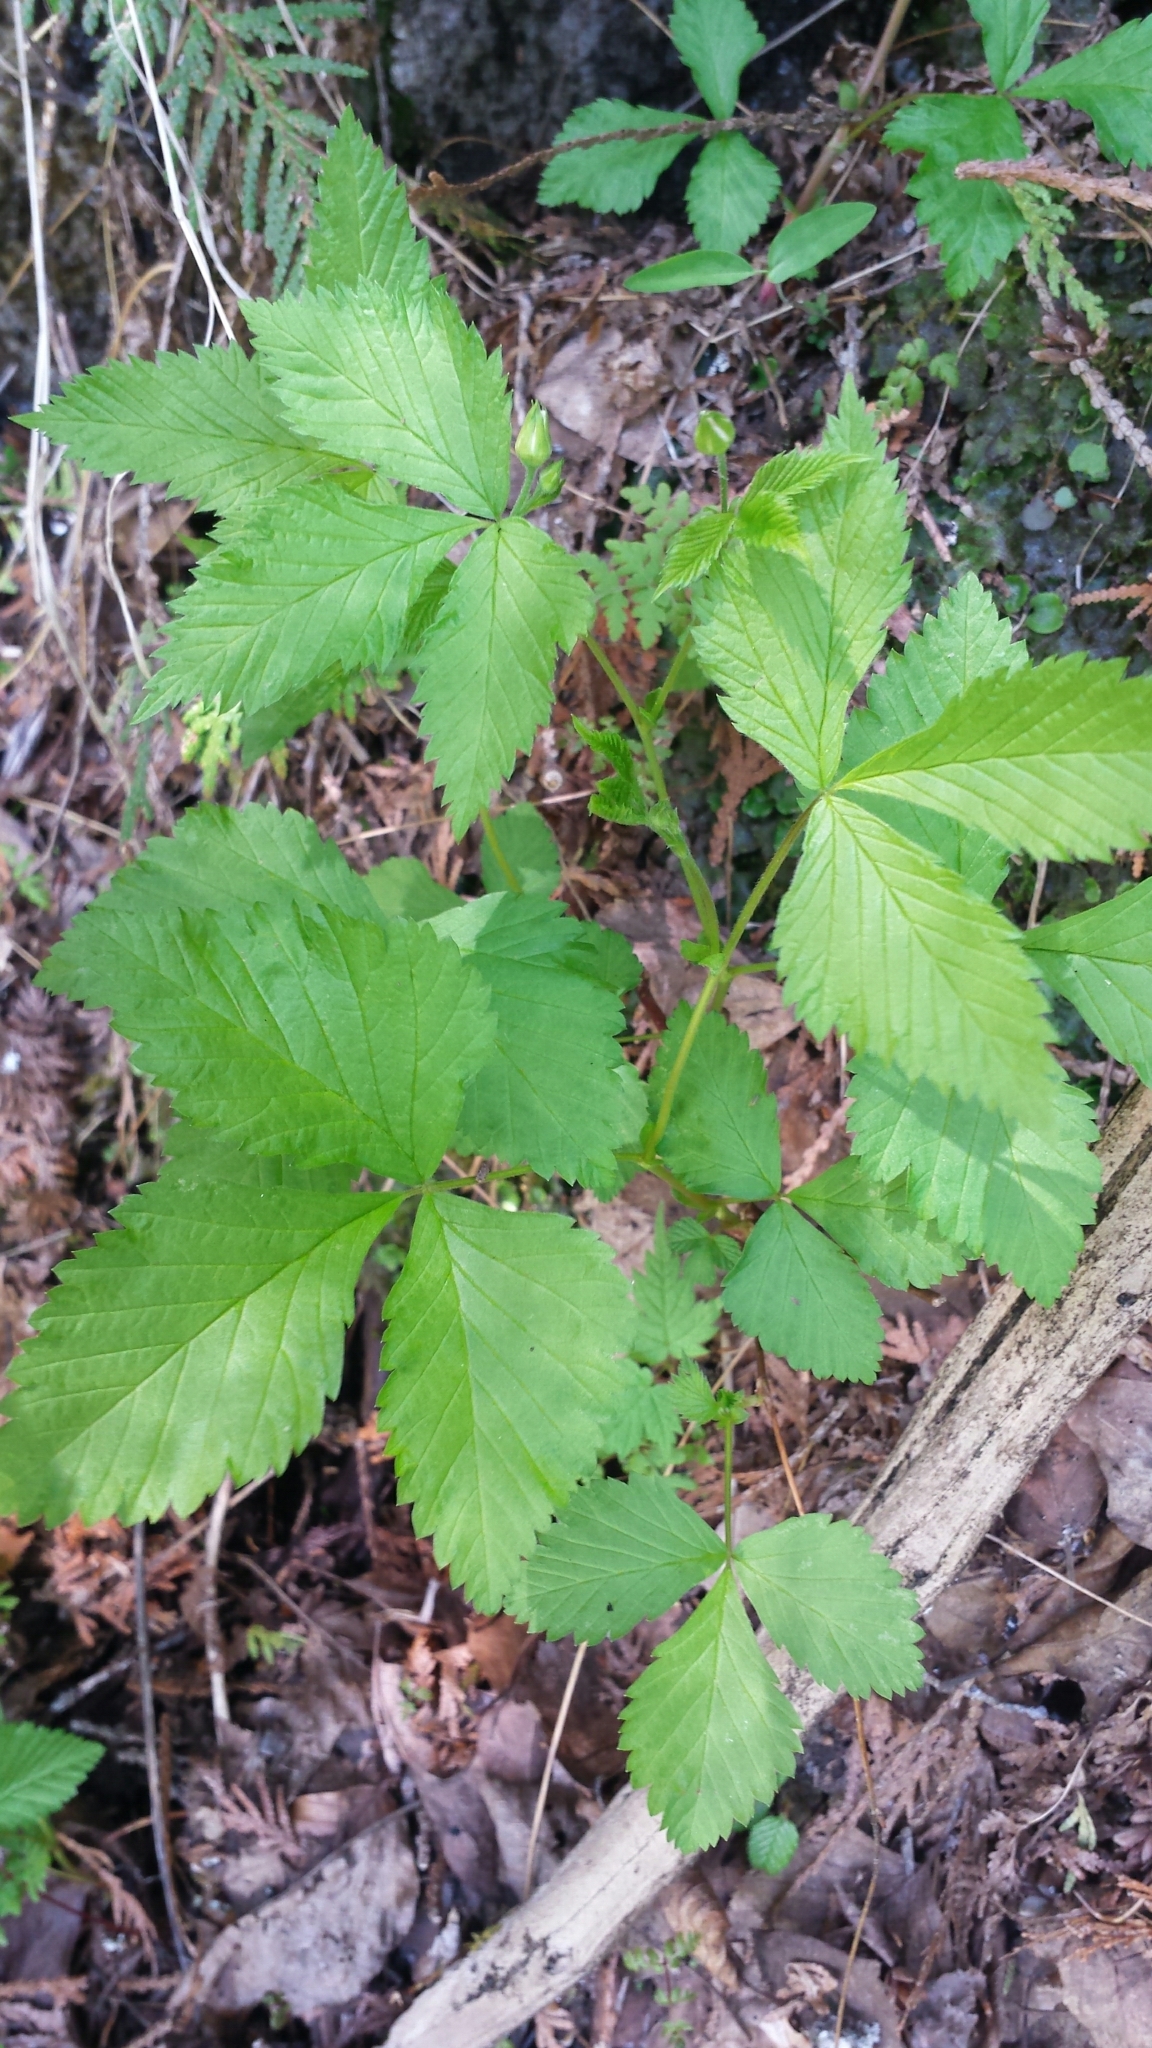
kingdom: Plantae
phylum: Tracheophyta
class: Magnoliopsida
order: Rosales
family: Rosaceae
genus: Rubus
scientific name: Rubus pubescens
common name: Dwarf raspberry
